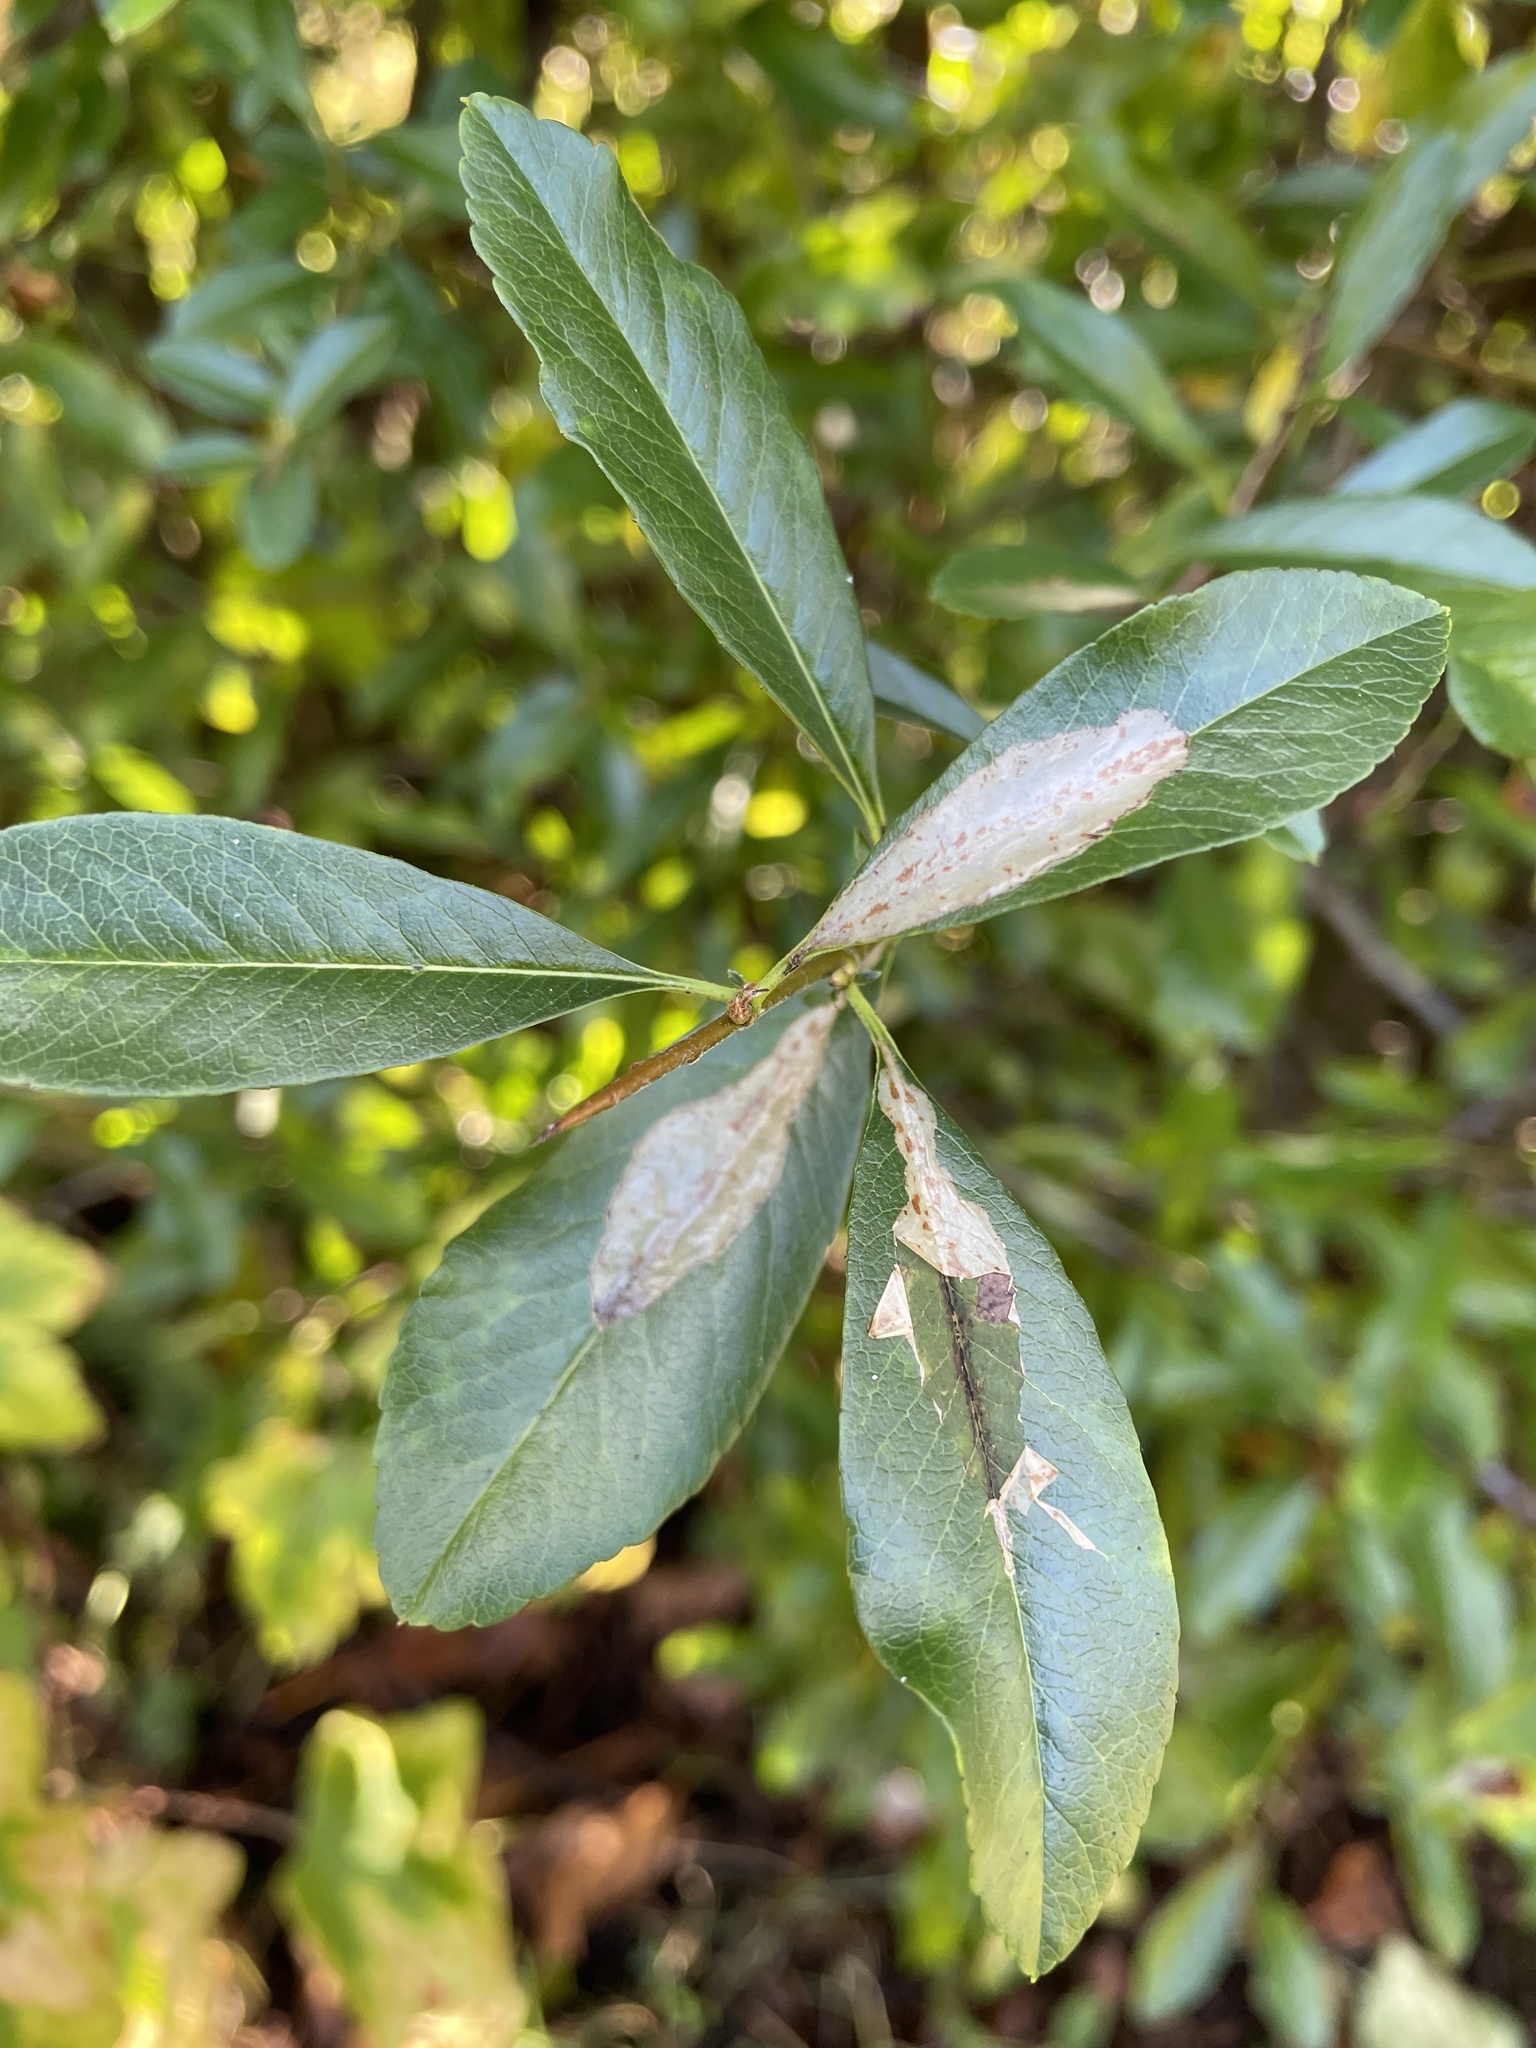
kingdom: Animalia
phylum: Arthropoda
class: Insecta
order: Lepidoptera
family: Gracillariidae
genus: Phyllonorycter
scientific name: Phyllonorycter leucographella
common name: Firethorn leaf-miner
